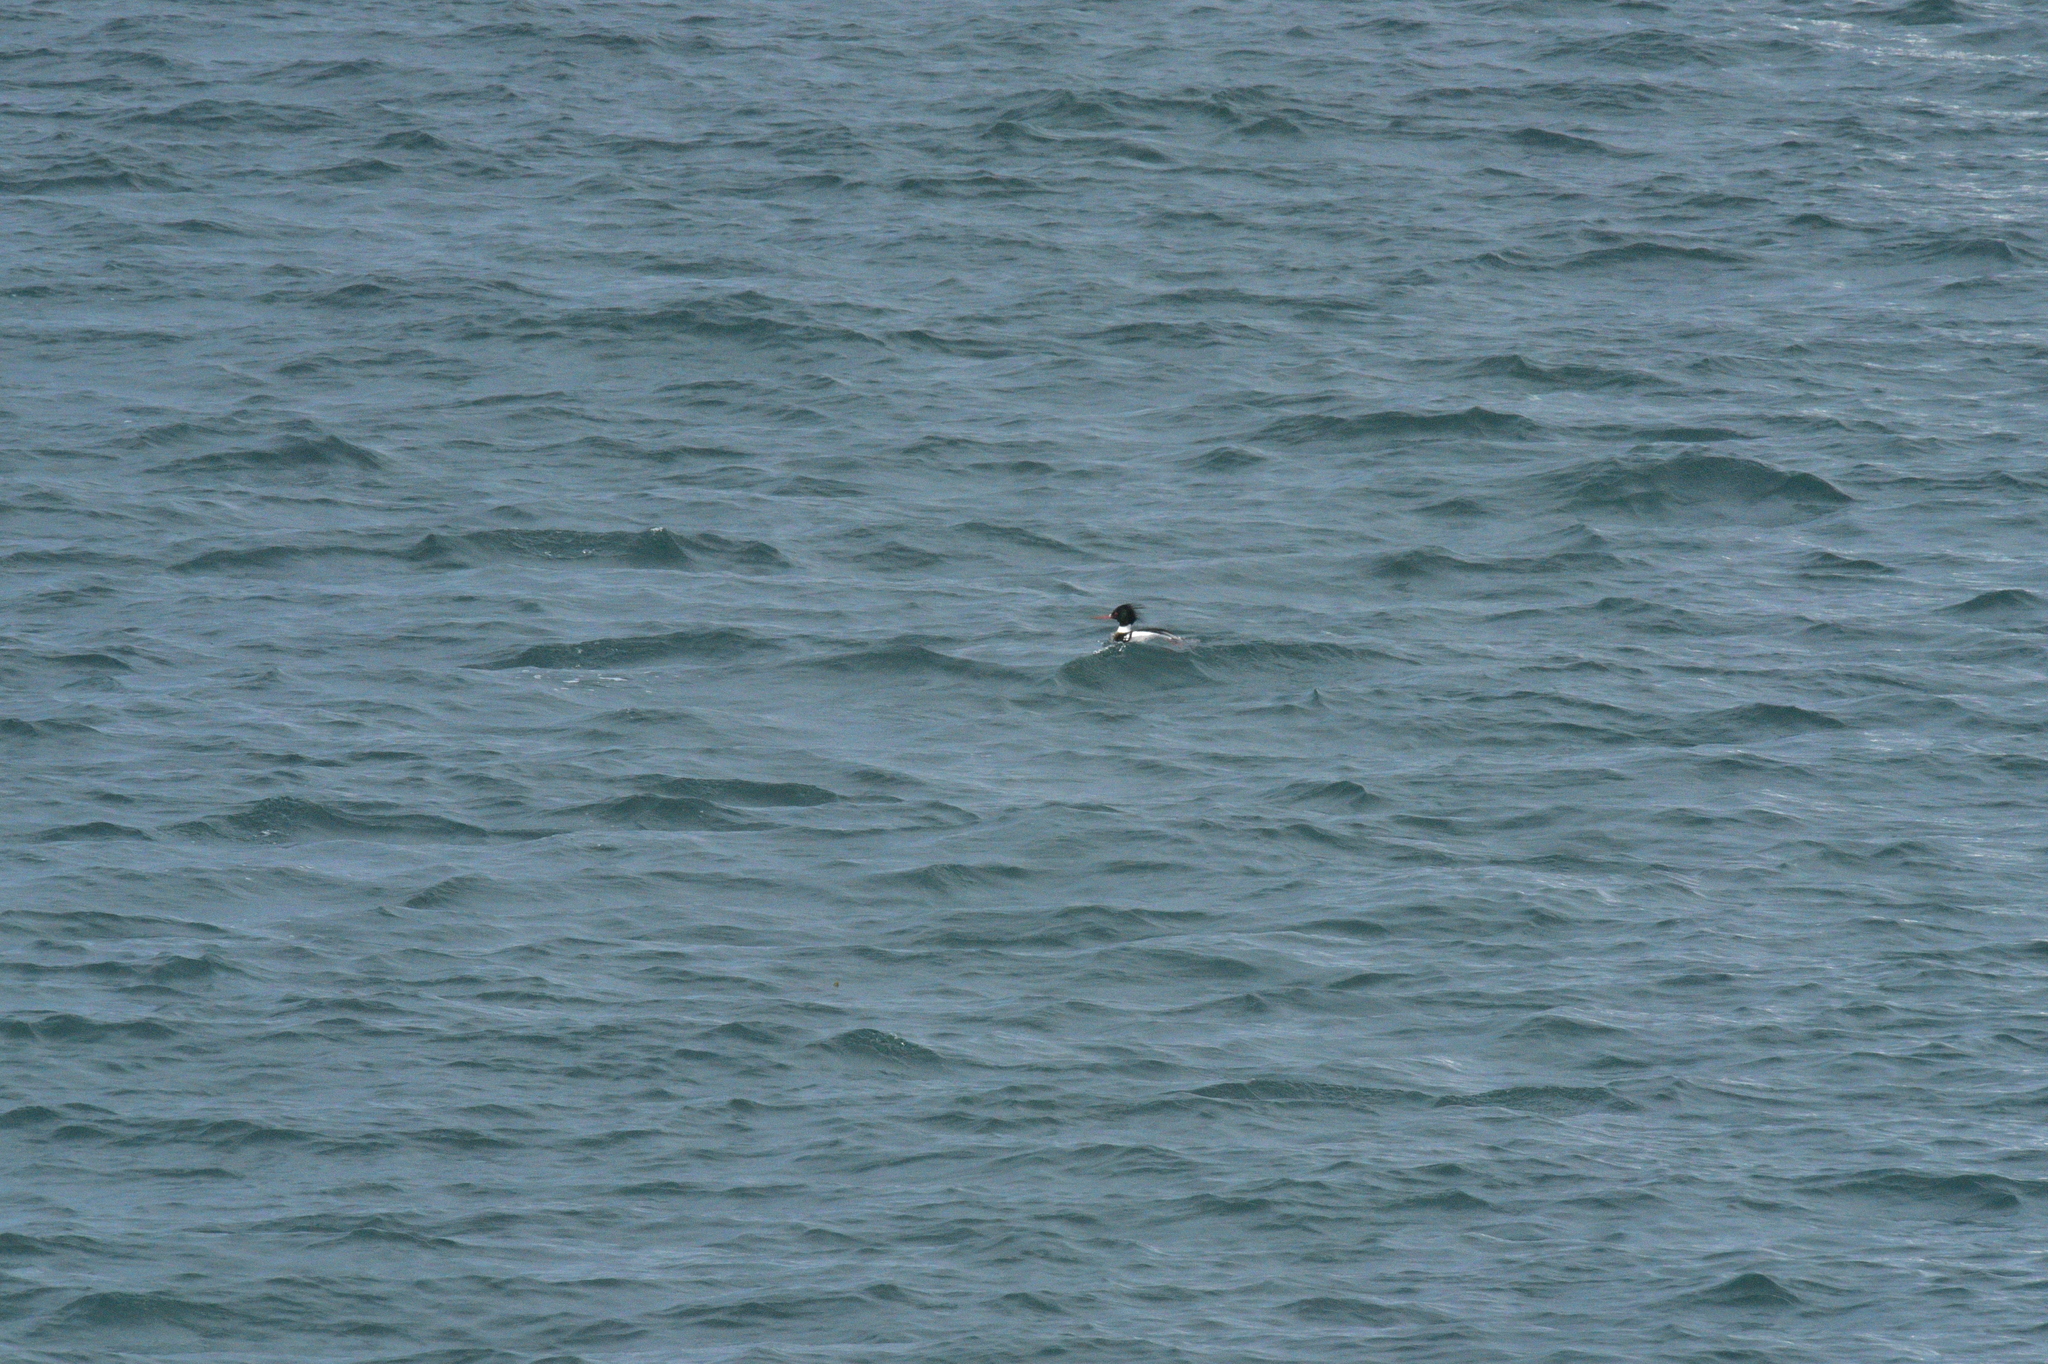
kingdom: Animalia
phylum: Chordata
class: Aves
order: Anseriformes
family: Anatidae
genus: Mergus
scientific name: Mergus serrator
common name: Red-breasted merganser
